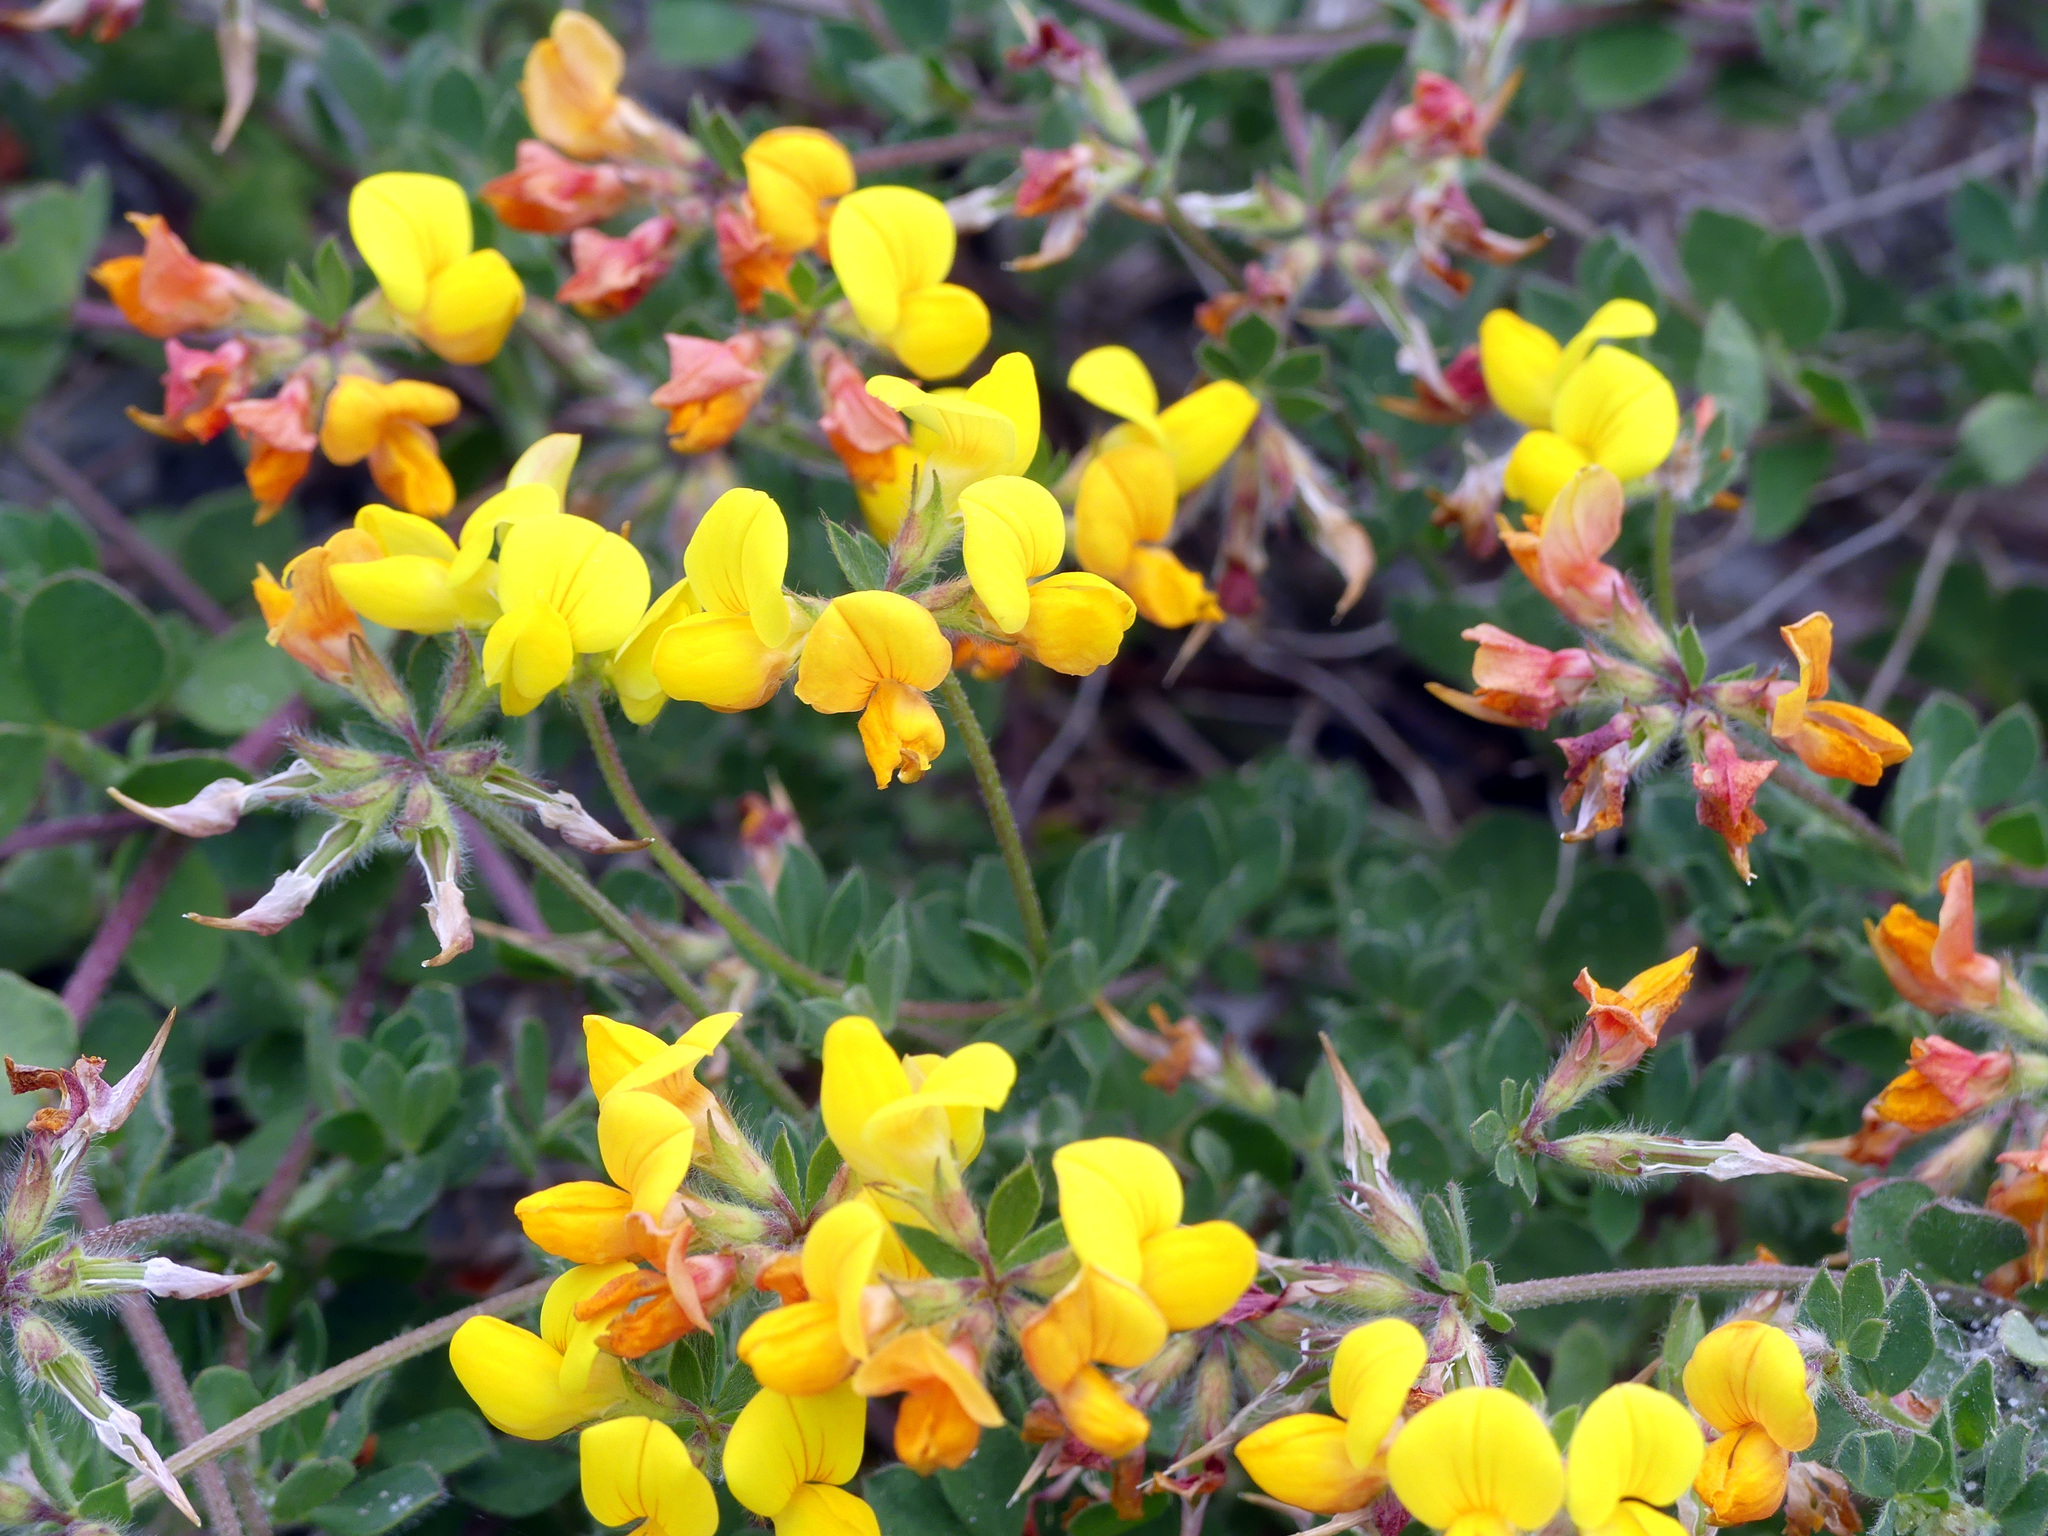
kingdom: Plantae
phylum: Tracheophyta
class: Magnoliopsida
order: Fabales
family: Fabaceae
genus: Lotus
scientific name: Lotus corniculatus
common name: Common bird's-foot-trefoil
